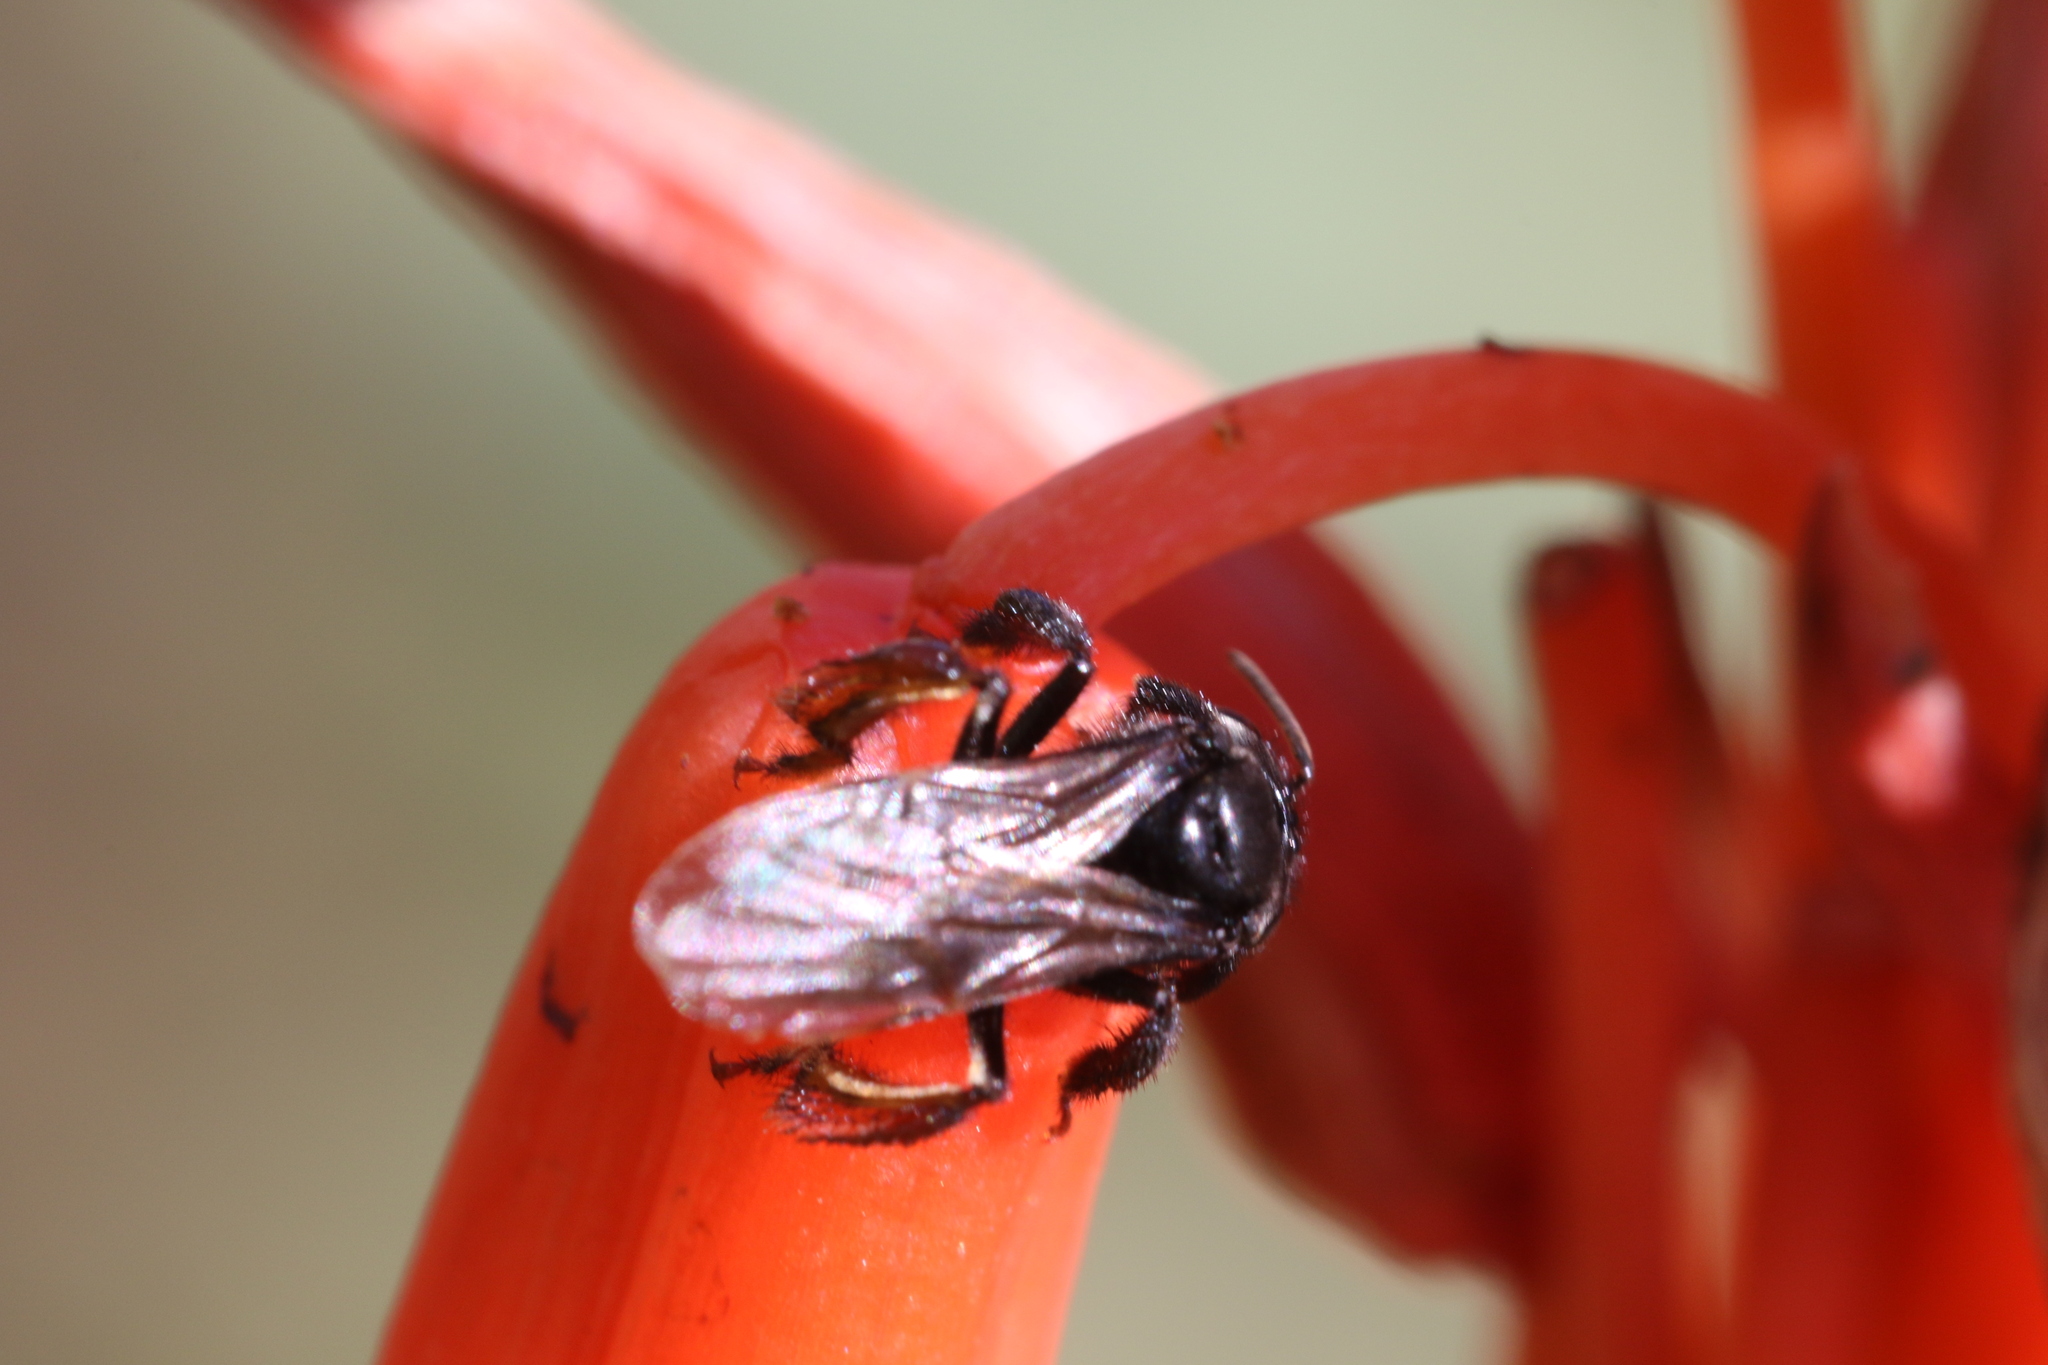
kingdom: Animalia
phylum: Arthropoda
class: Insecta
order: Hymenoptera
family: Apidae
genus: Trigona
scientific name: Trigona spinipes
